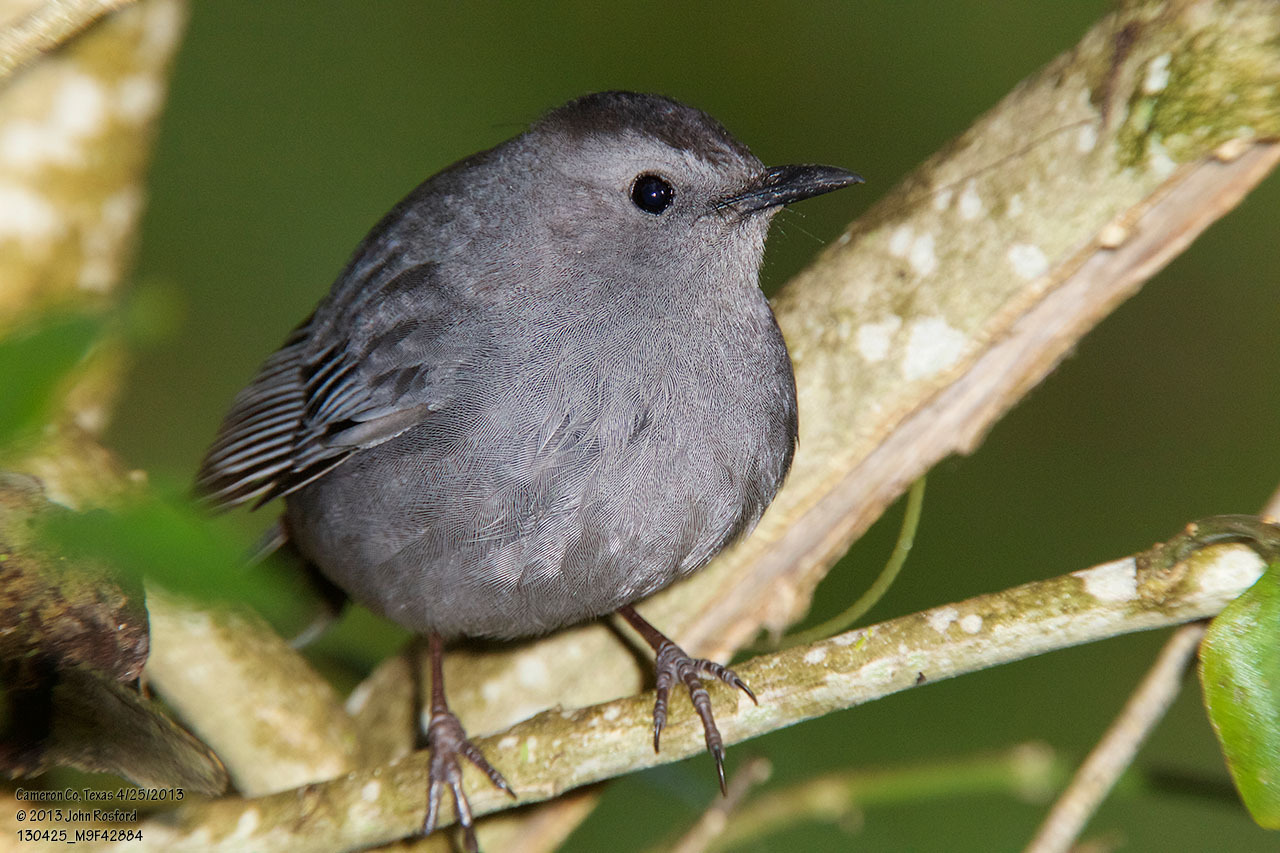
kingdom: Animalia
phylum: Chordata
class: Aves
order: Passeriformes
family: Mimidae
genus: Dumetella
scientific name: Dumetella carolinensis
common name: Gray catbird
